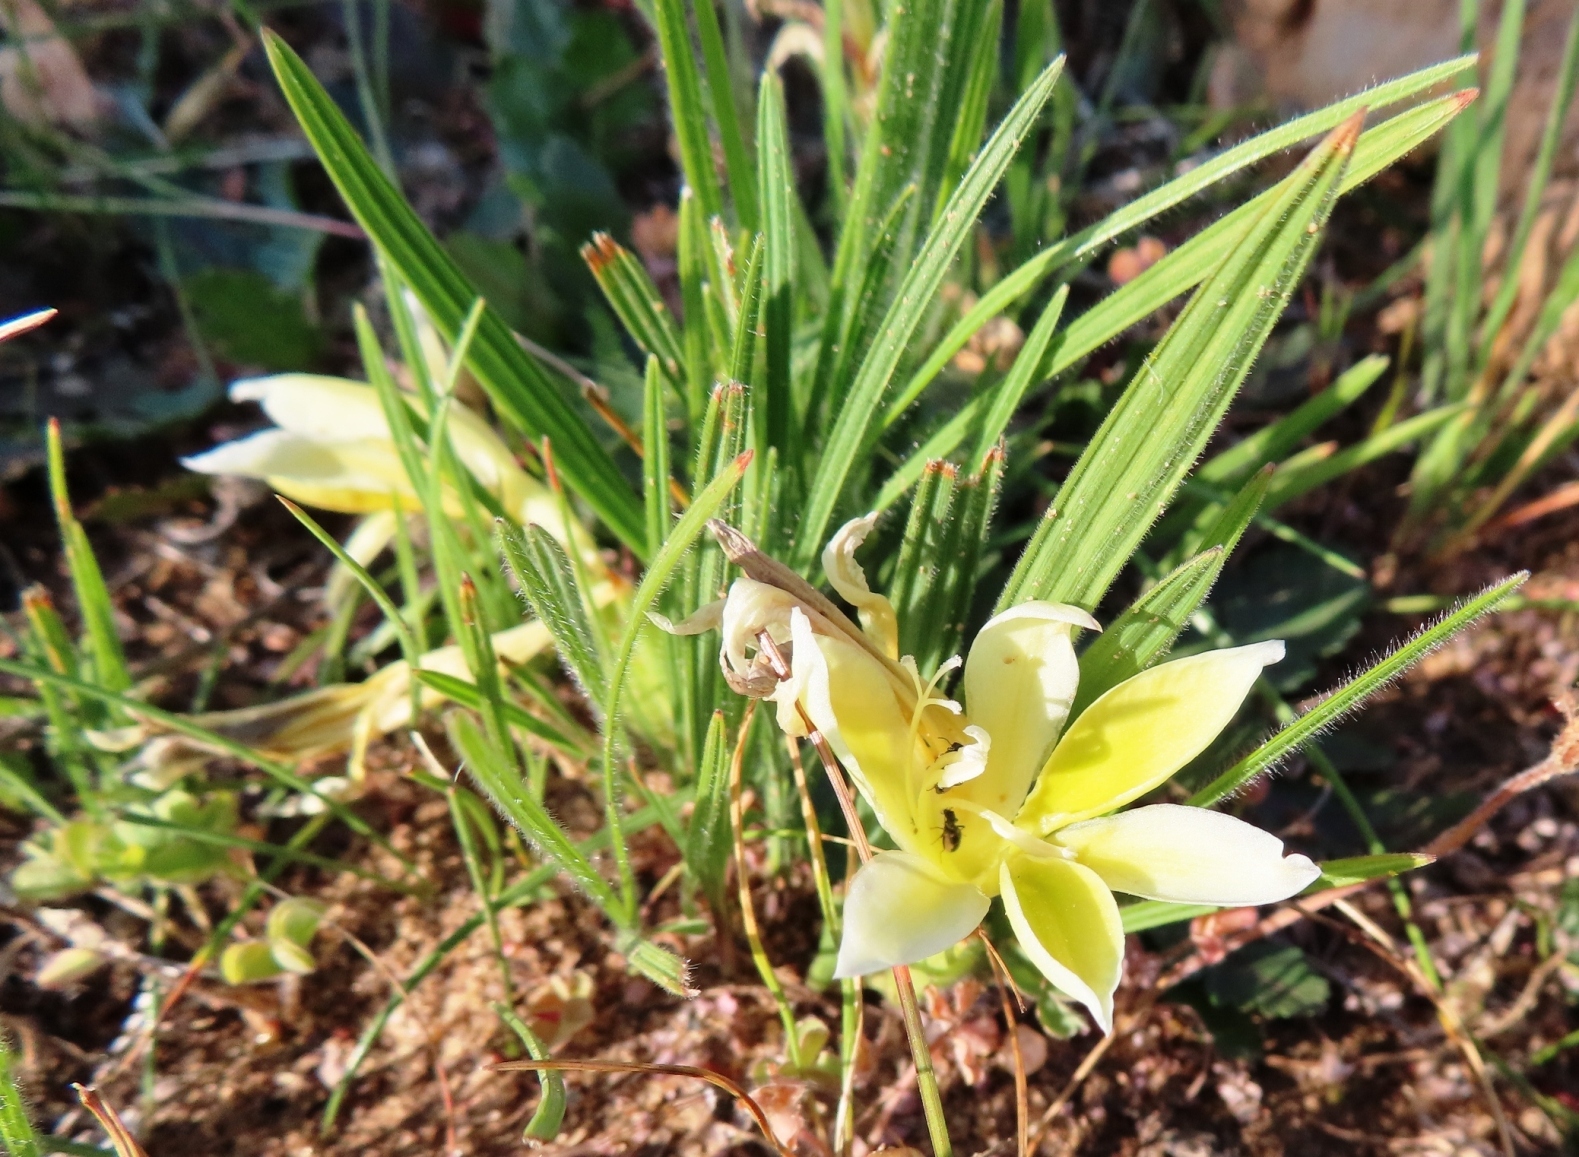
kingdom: Plantae
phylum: Tracheophyta
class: Liliopsida
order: Asparagales
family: Iridaceae
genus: Babiana
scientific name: Babiana vanzijliae
